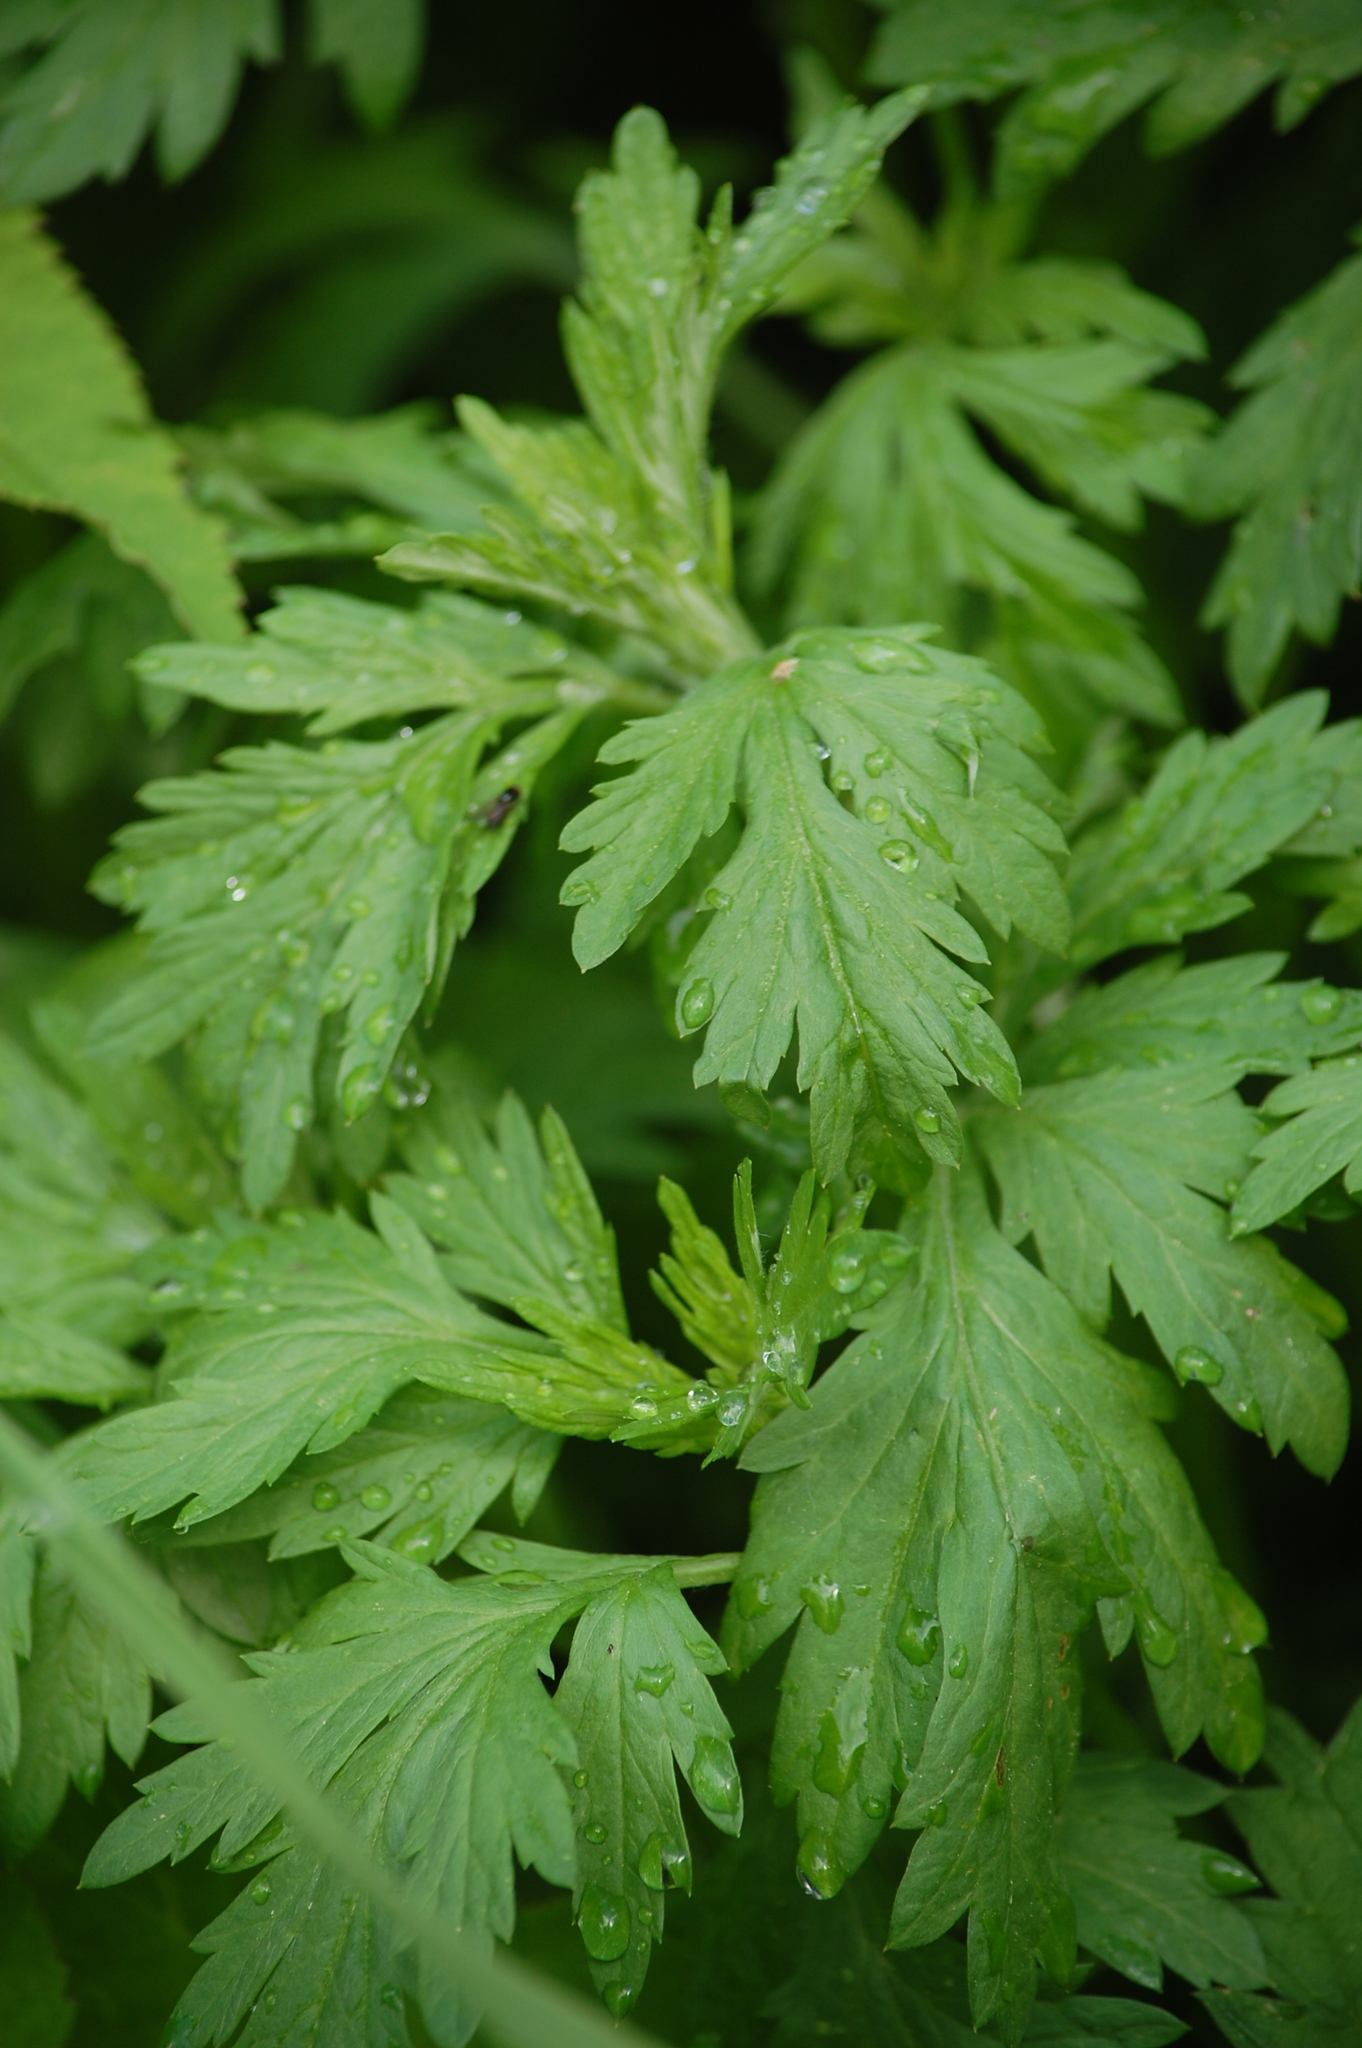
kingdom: Plantae
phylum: Tracheophyta
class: Magnoliopsida
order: Asterales
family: Asteraceae
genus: Artemisia
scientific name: Artemisia vulgaris
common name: Mugwort
